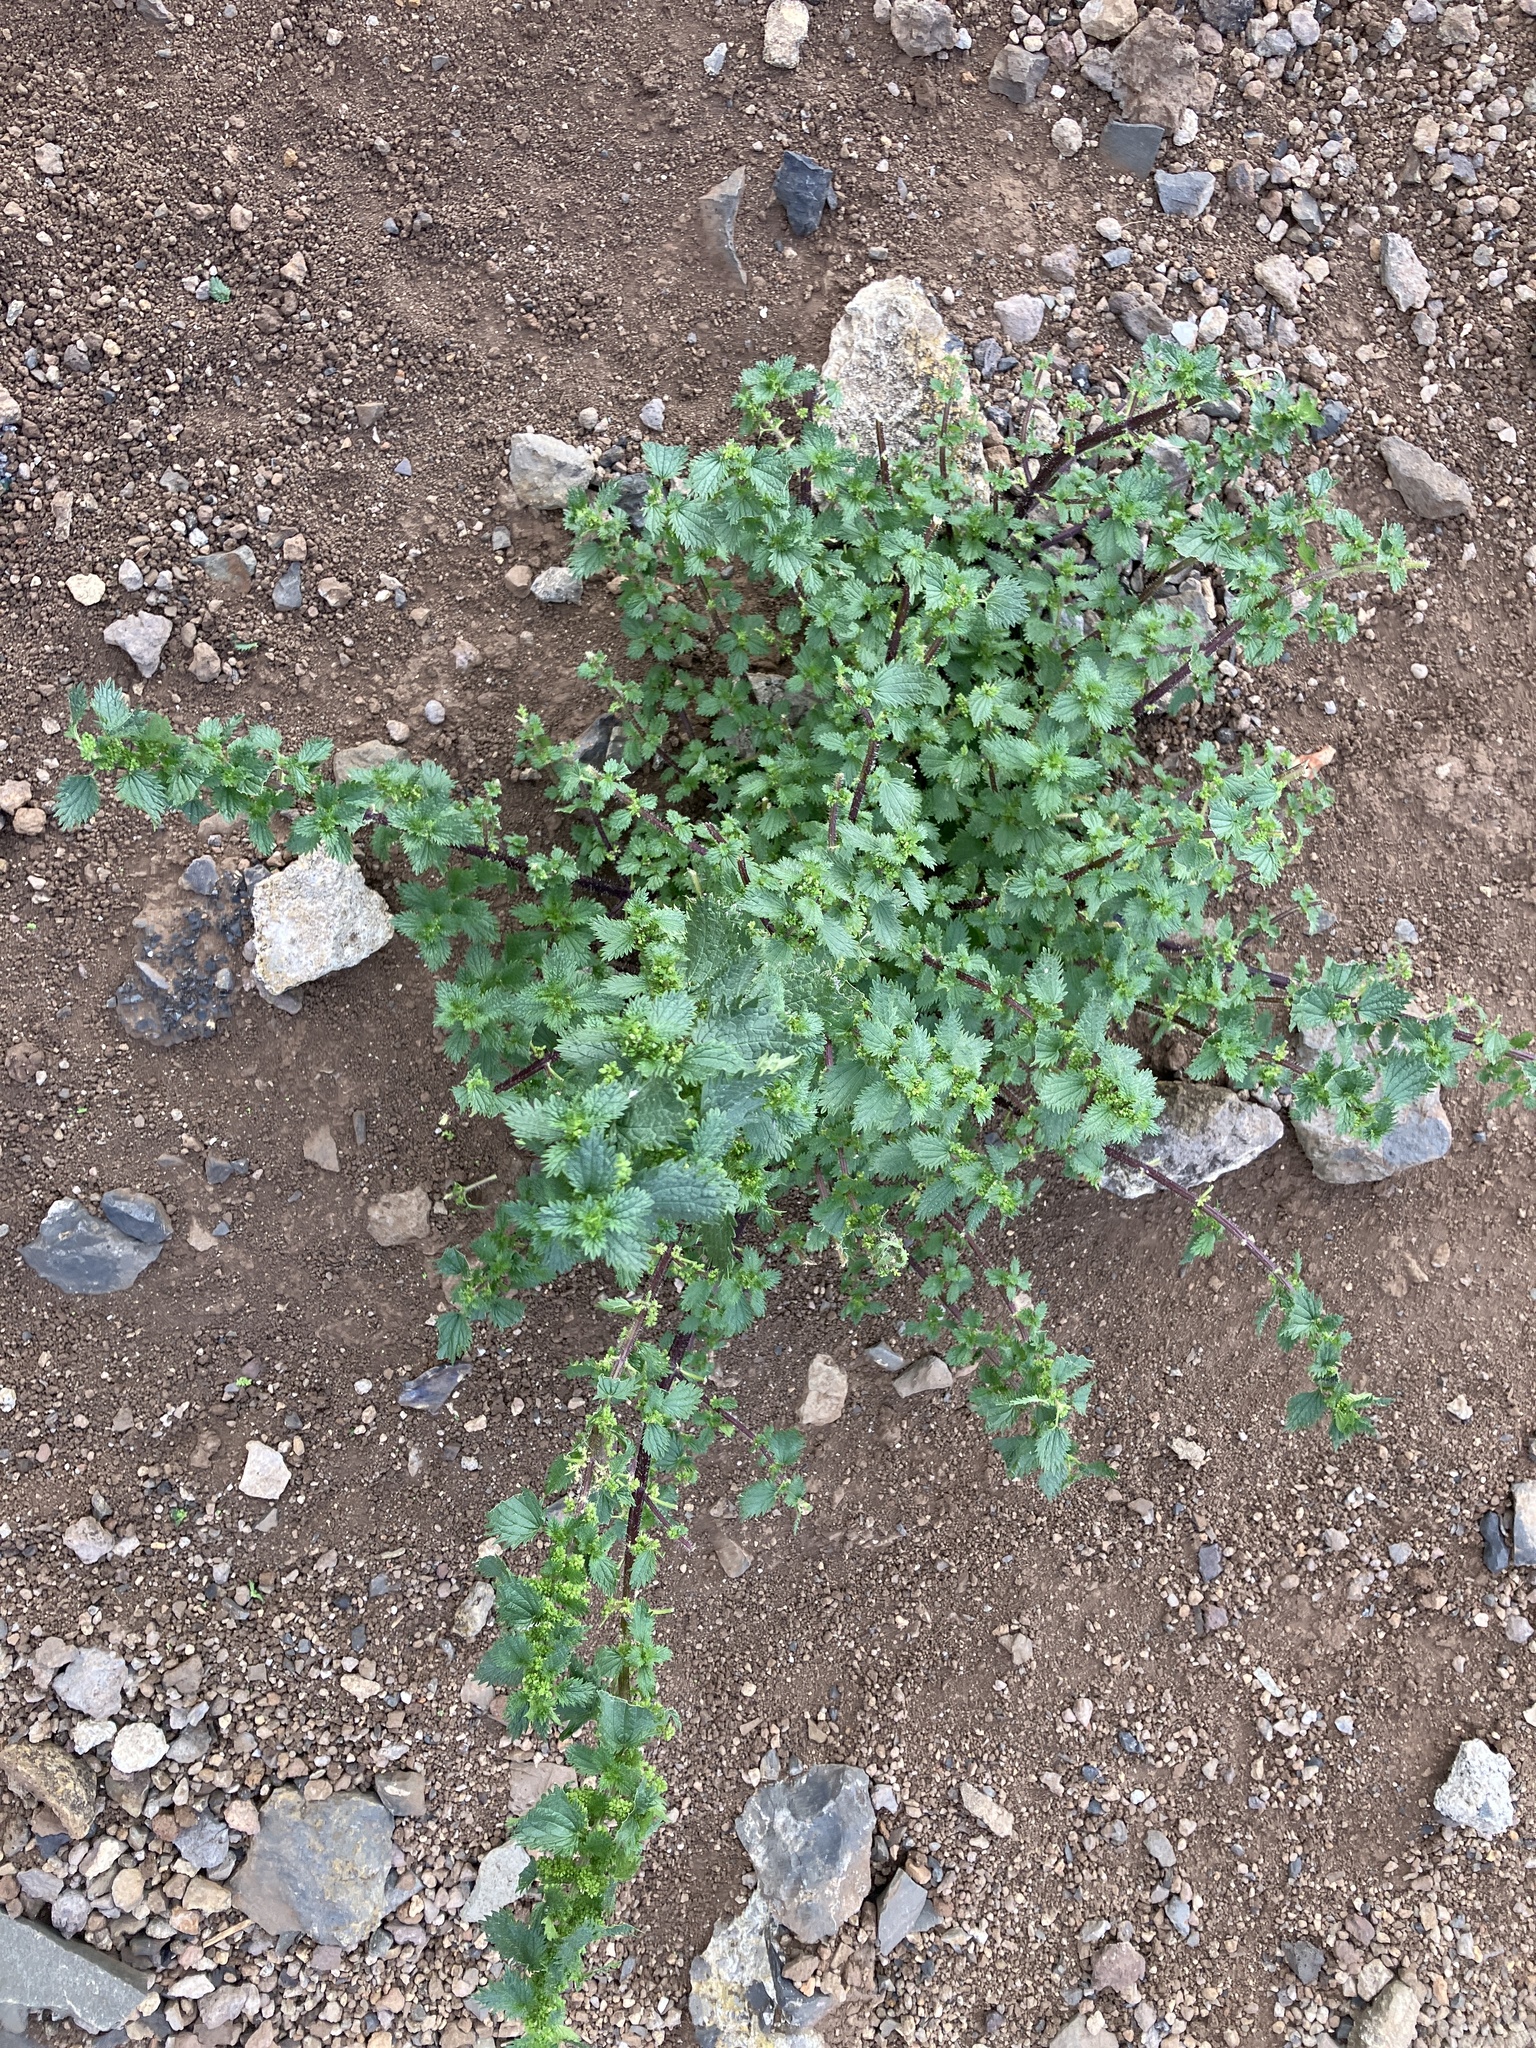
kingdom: Plantae
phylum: Tracheophyta
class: Magnoliopsida
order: Rosales
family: Urticaceae
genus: Urtica
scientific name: Urtica urens
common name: Dwarf nettle
